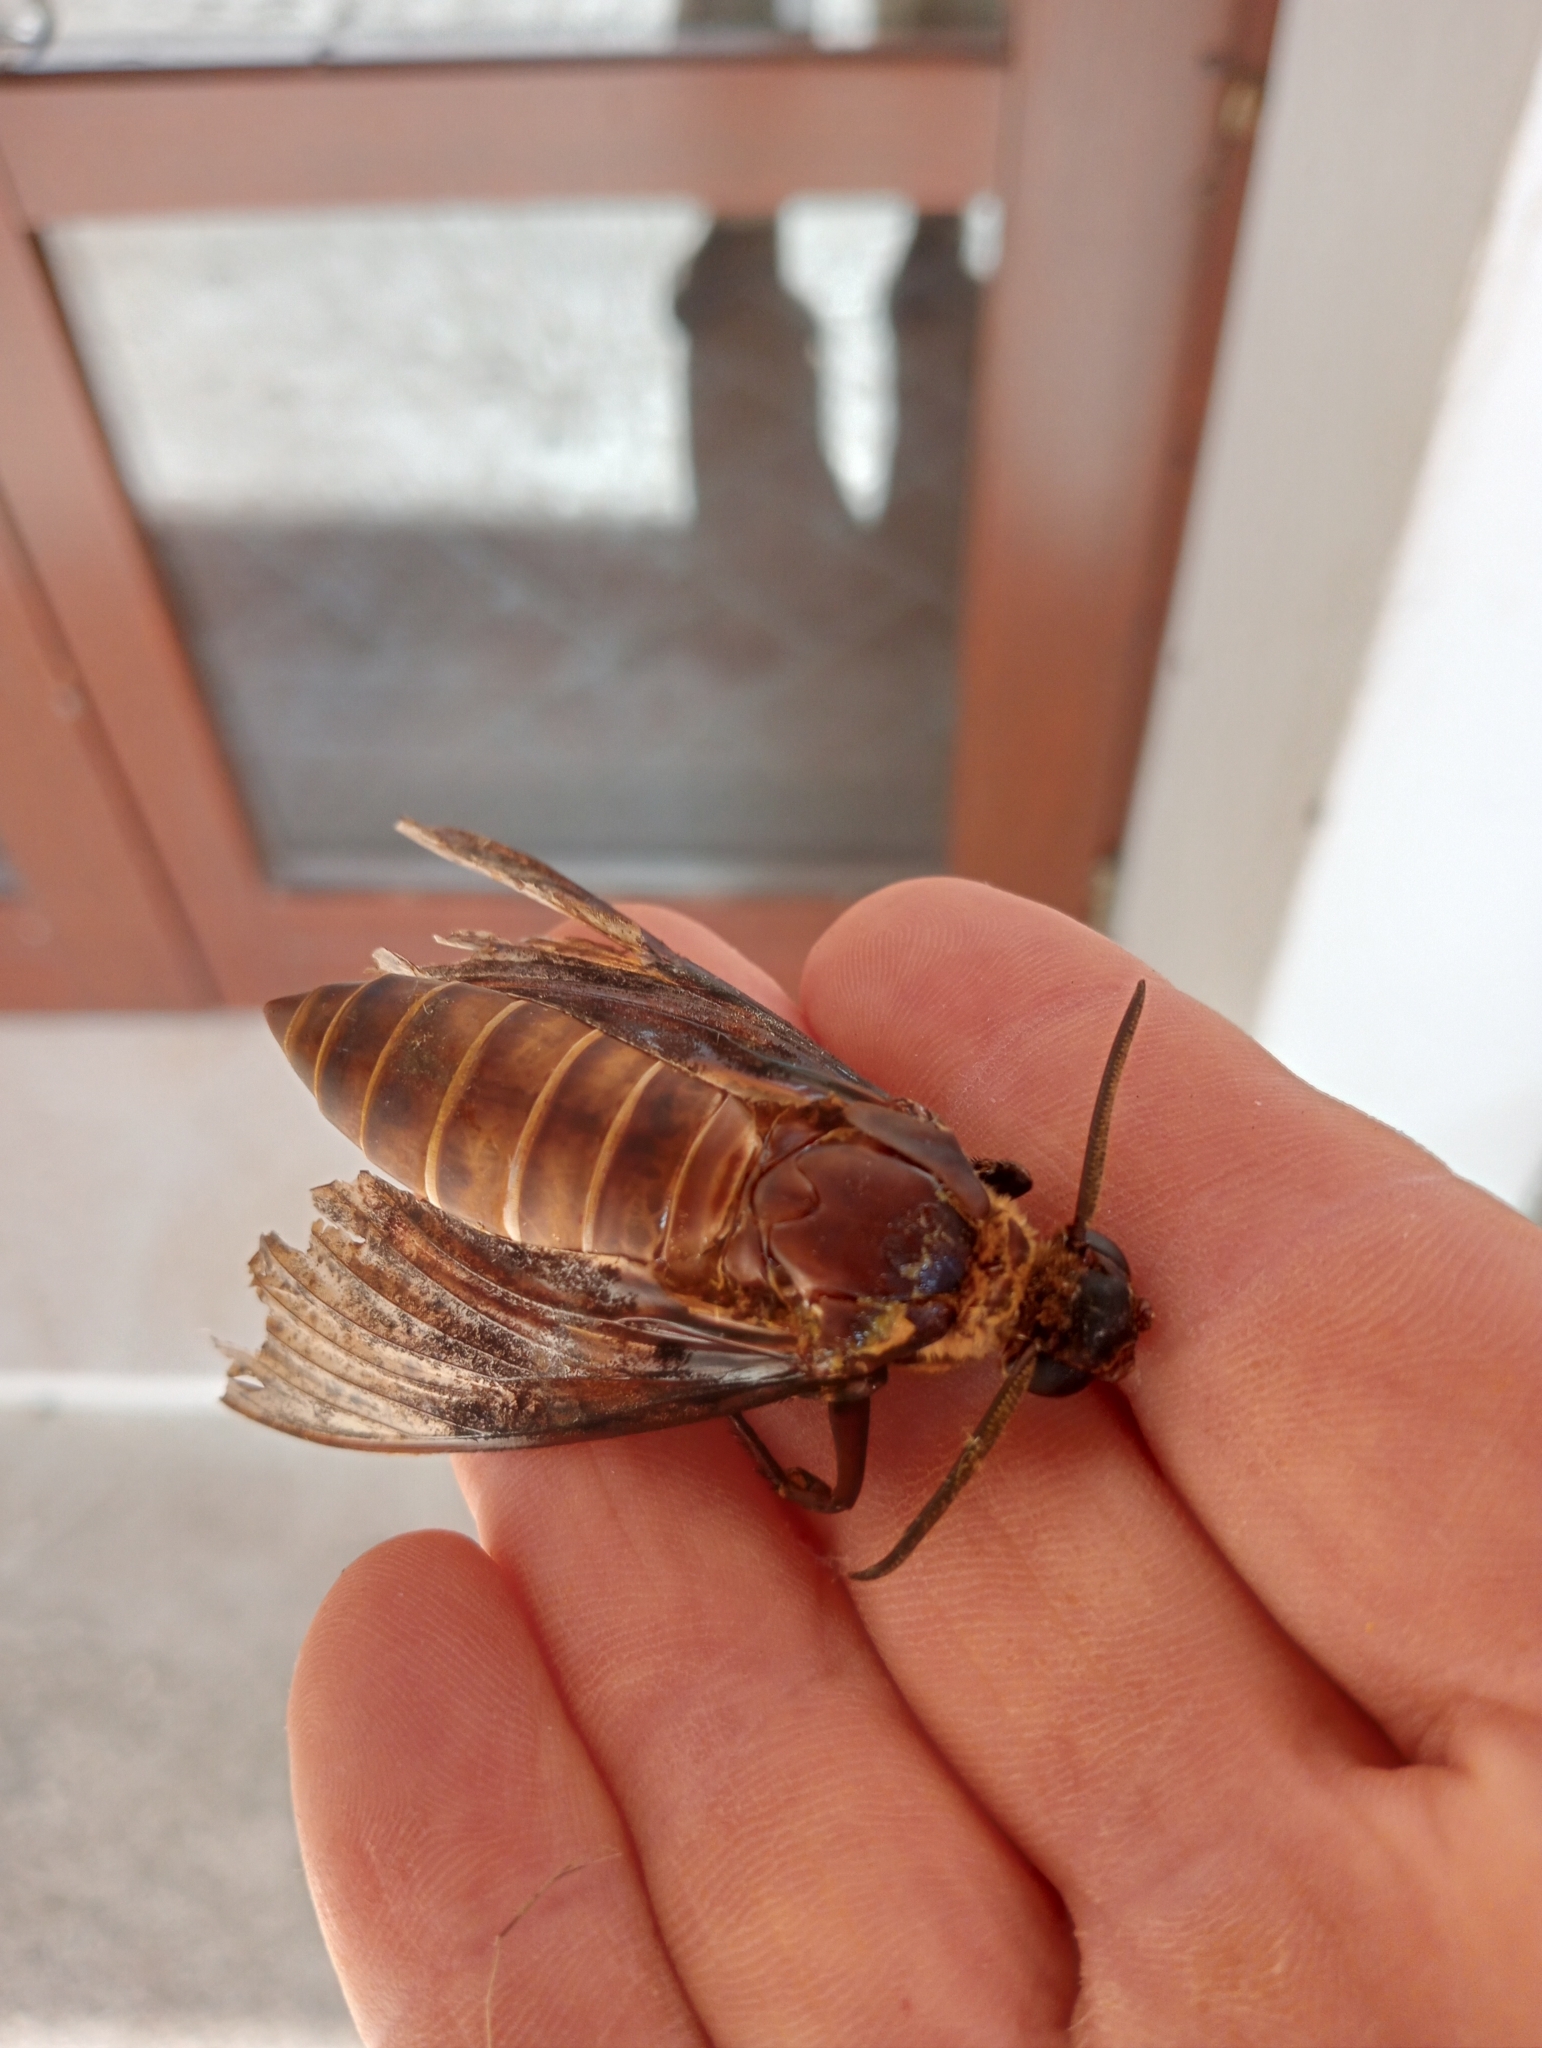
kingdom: Animalia
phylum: Arthropoda
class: Insecta
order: Lepidoptera
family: Sphingidae
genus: Acherontia
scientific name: Acherontia atropos
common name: Death's-head hawk moth
